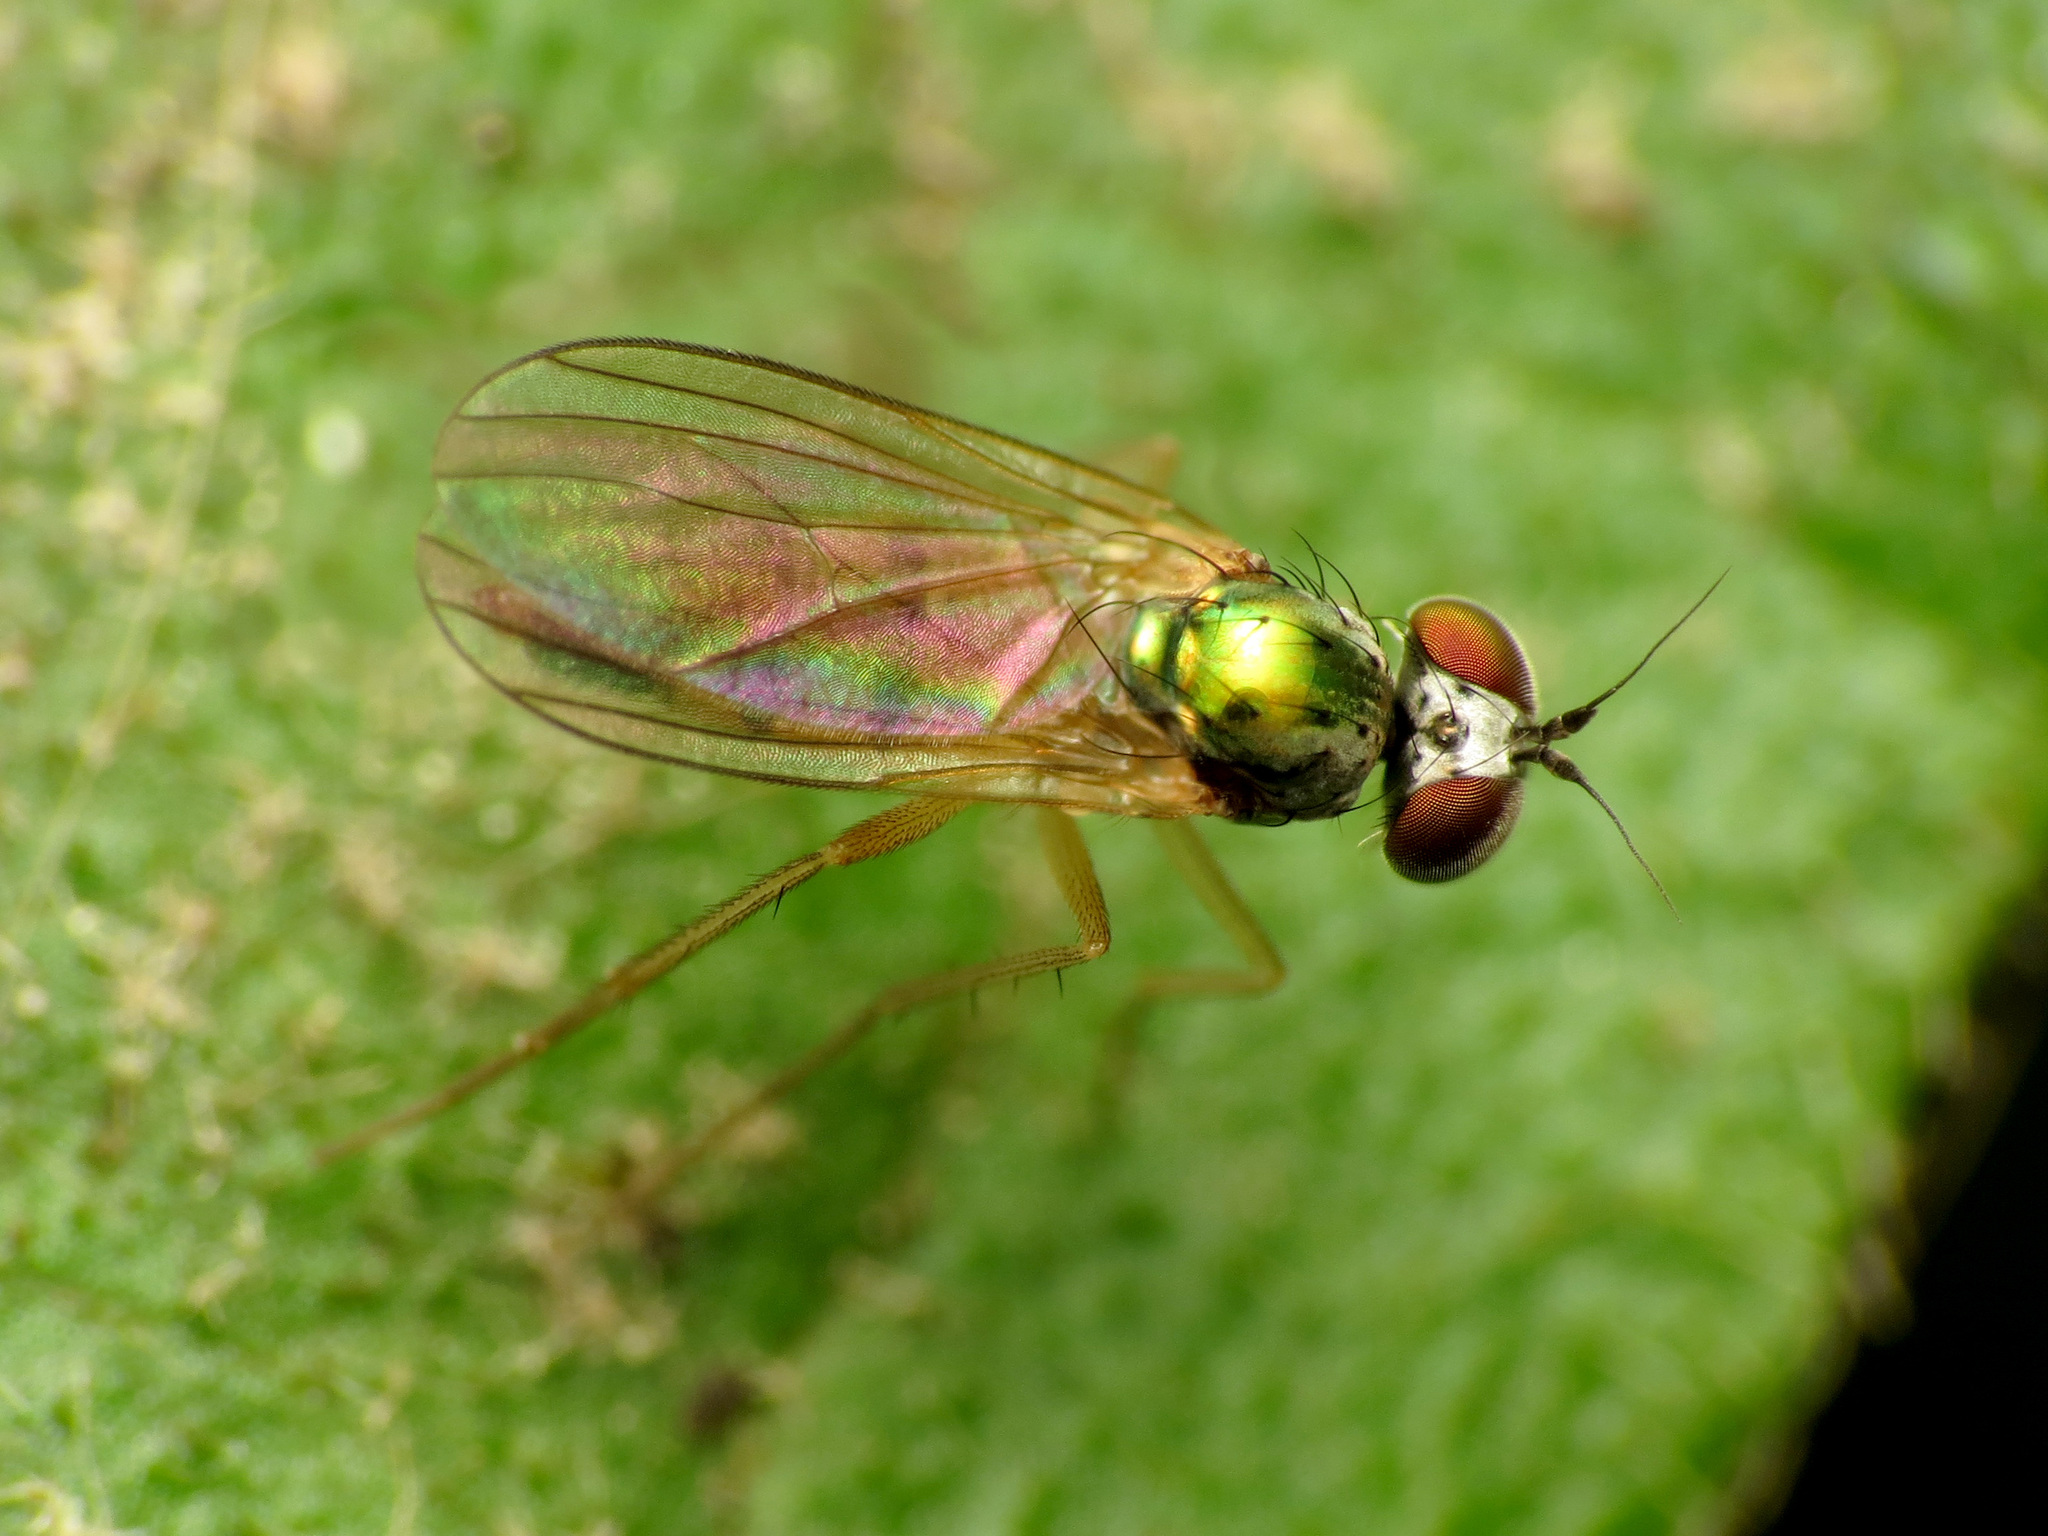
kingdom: Animalia
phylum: Arthropoda
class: Insecta
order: Diptera
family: Dolichopodidae
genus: Argyra
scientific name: Argyra flavipes
